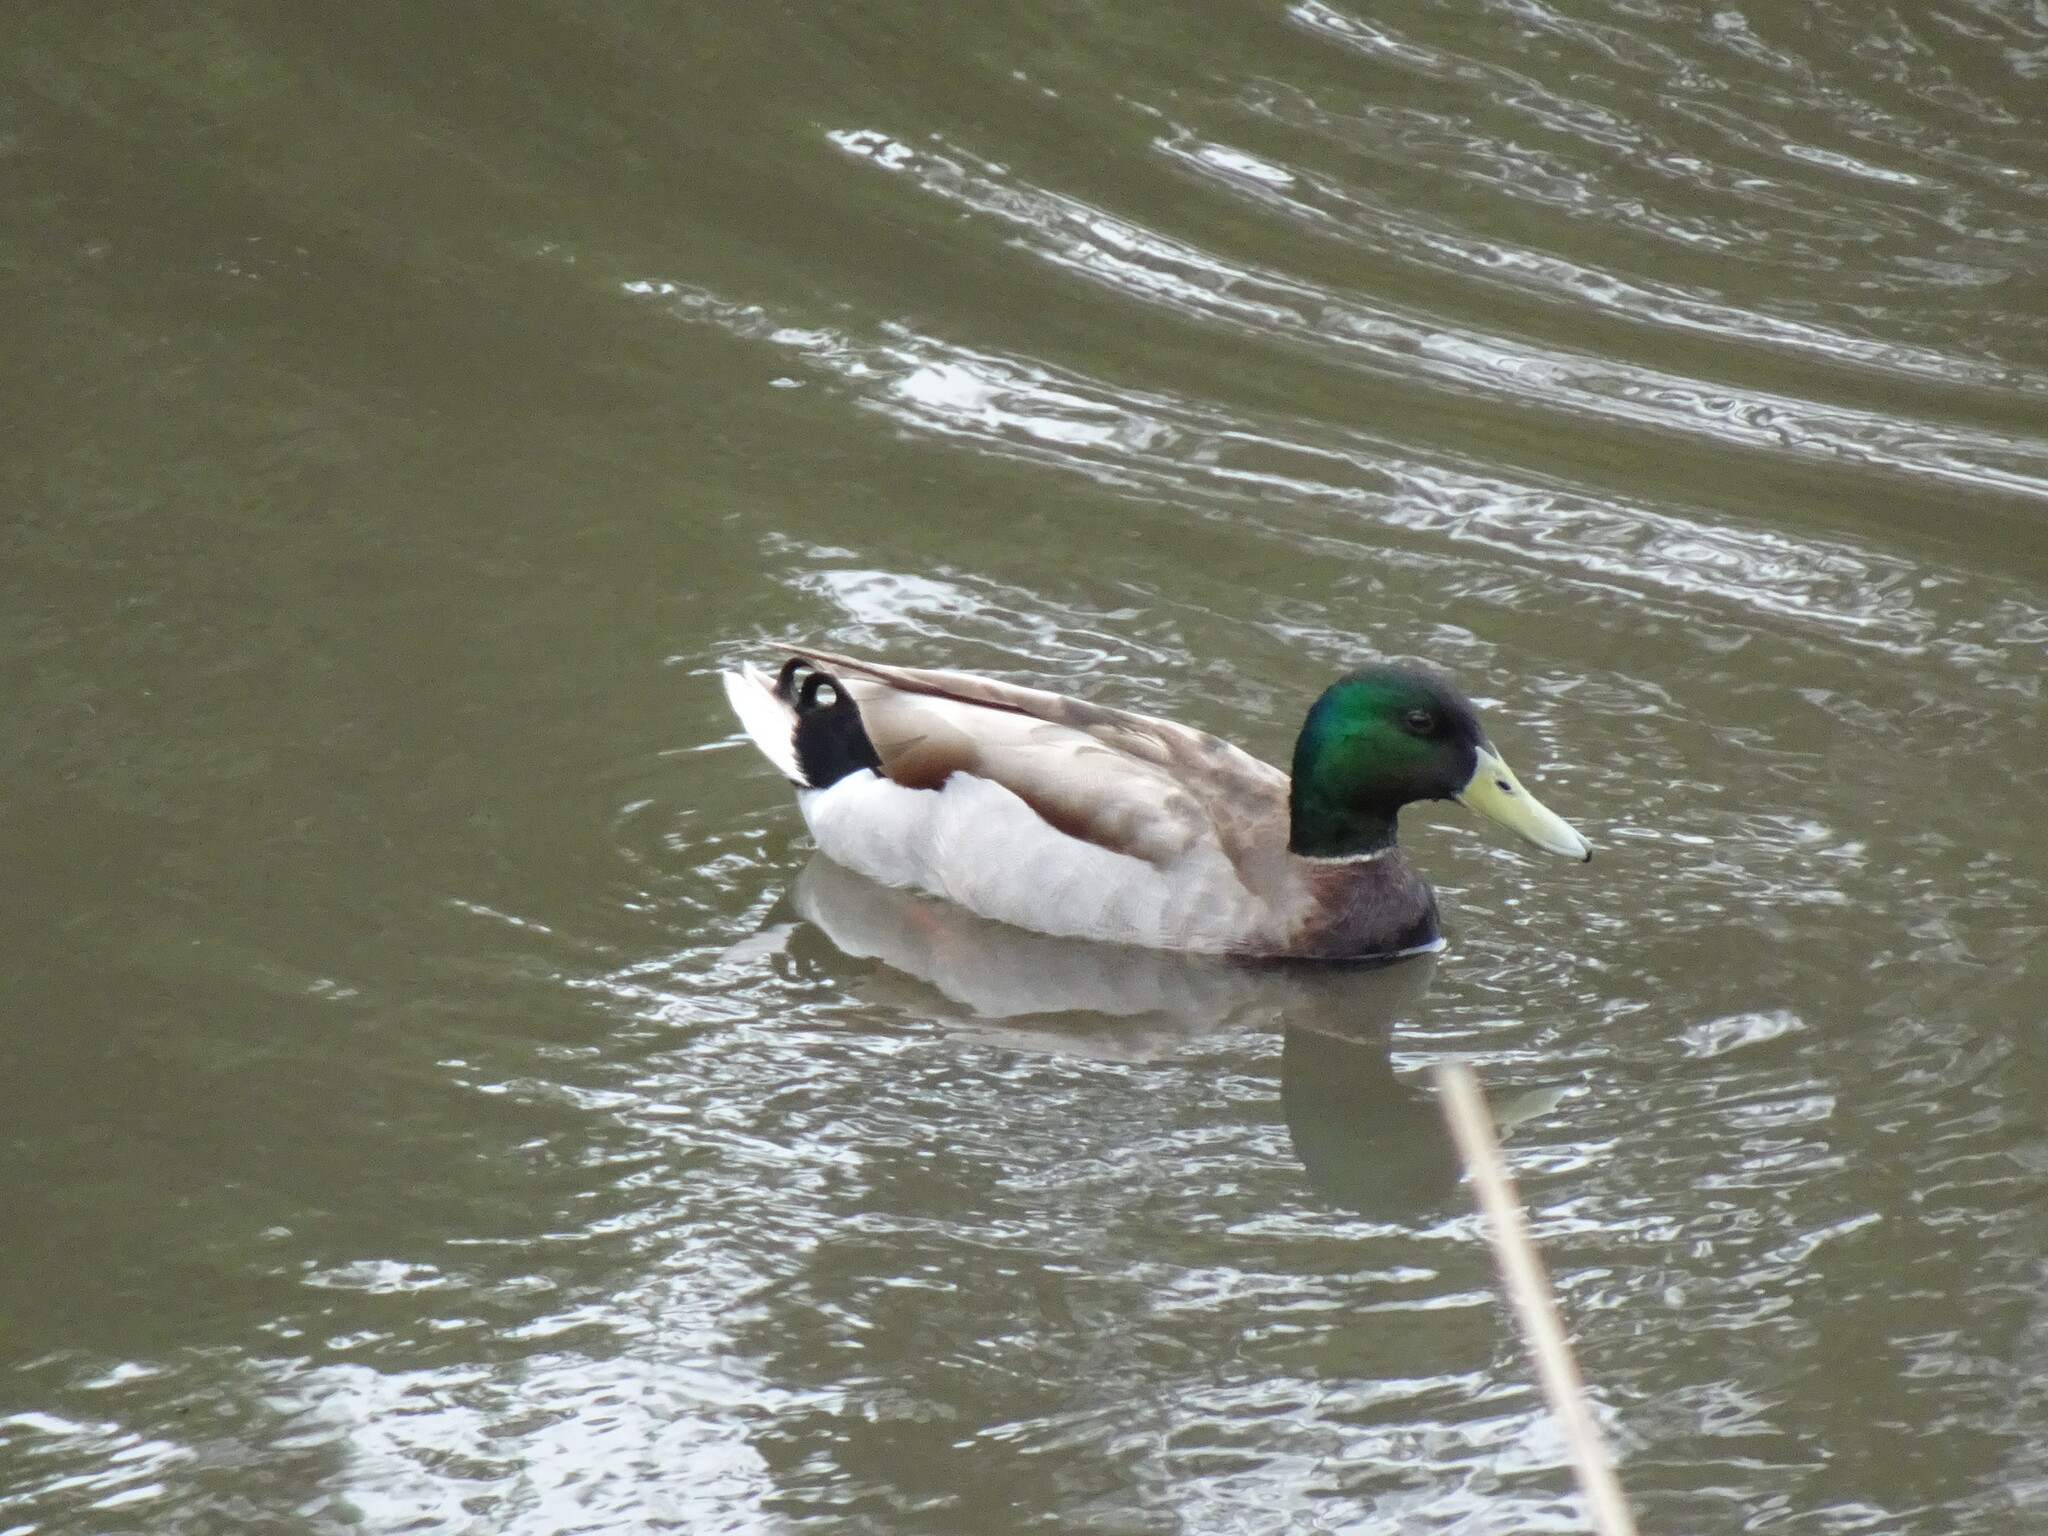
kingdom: Animalia
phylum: Chordata
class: Aves
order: Anseriformes
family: Anatidae
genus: Anas
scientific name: Anas platyrhynchos
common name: Mallard
